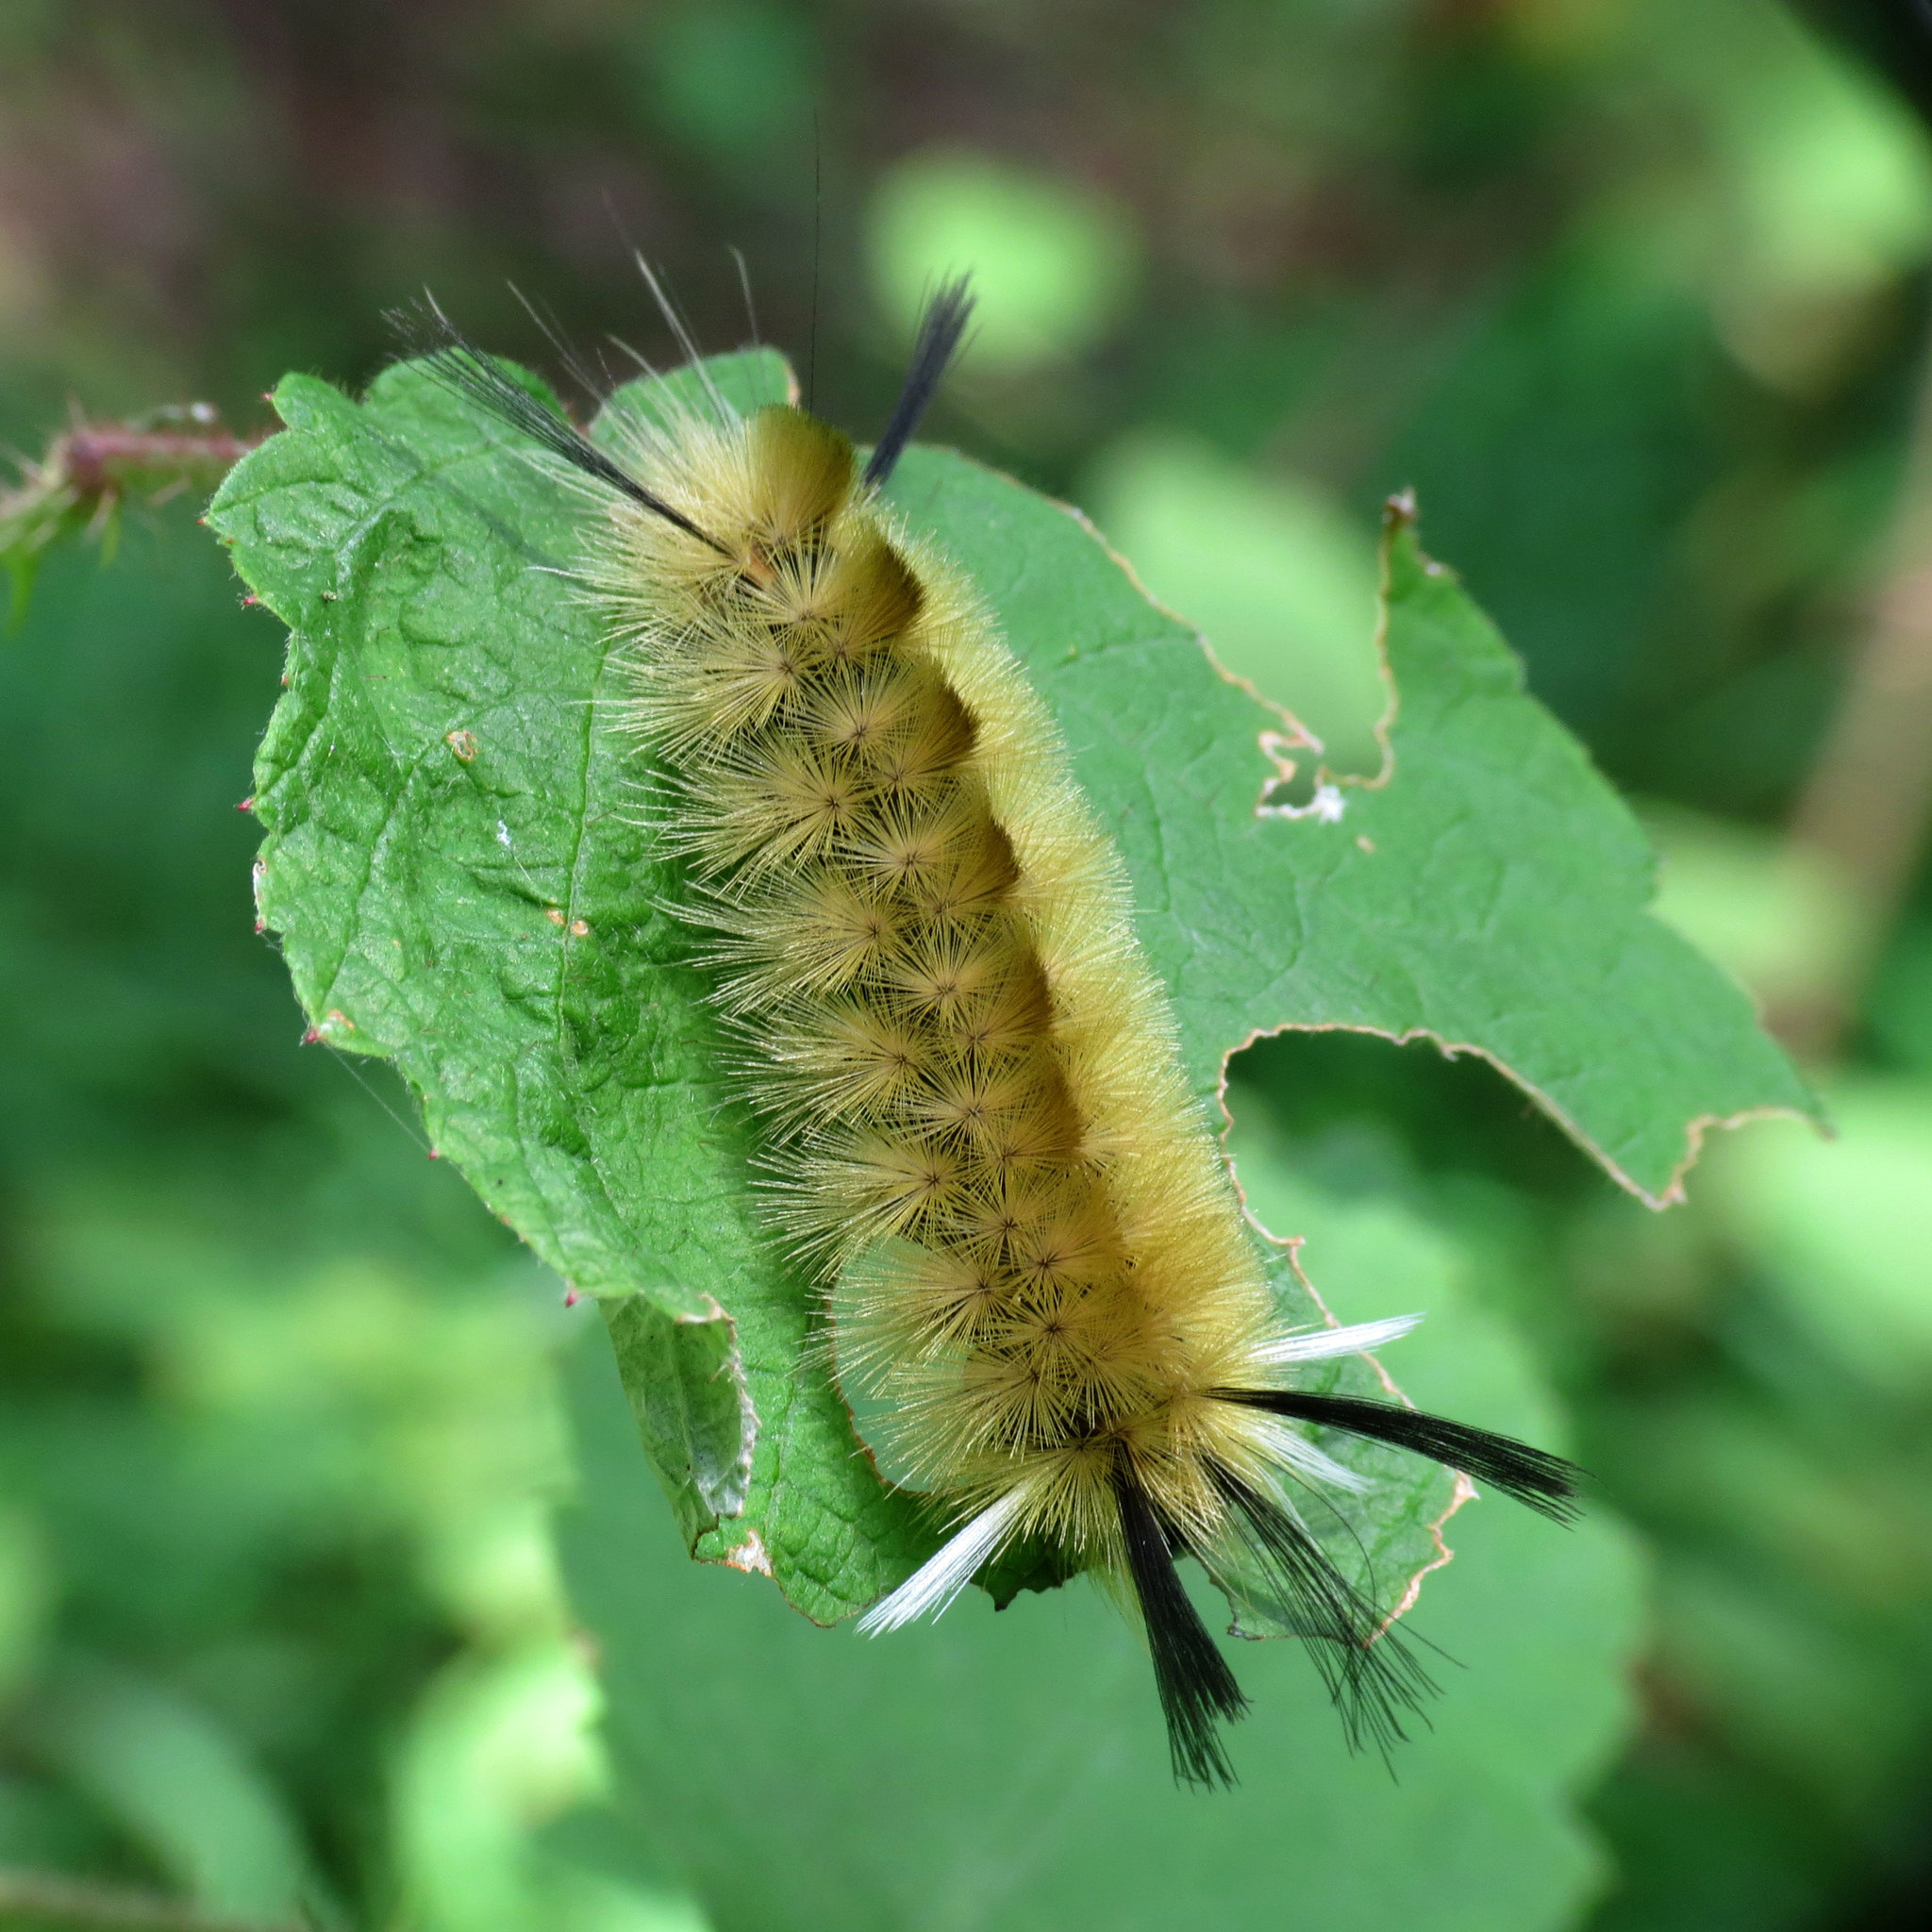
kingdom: Animalia
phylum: Arthropoda
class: Insecta
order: Lepidoptera
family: Erebidae
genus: Halysidota
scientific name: Halysidota tessellaris
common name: Banded tussock moth
